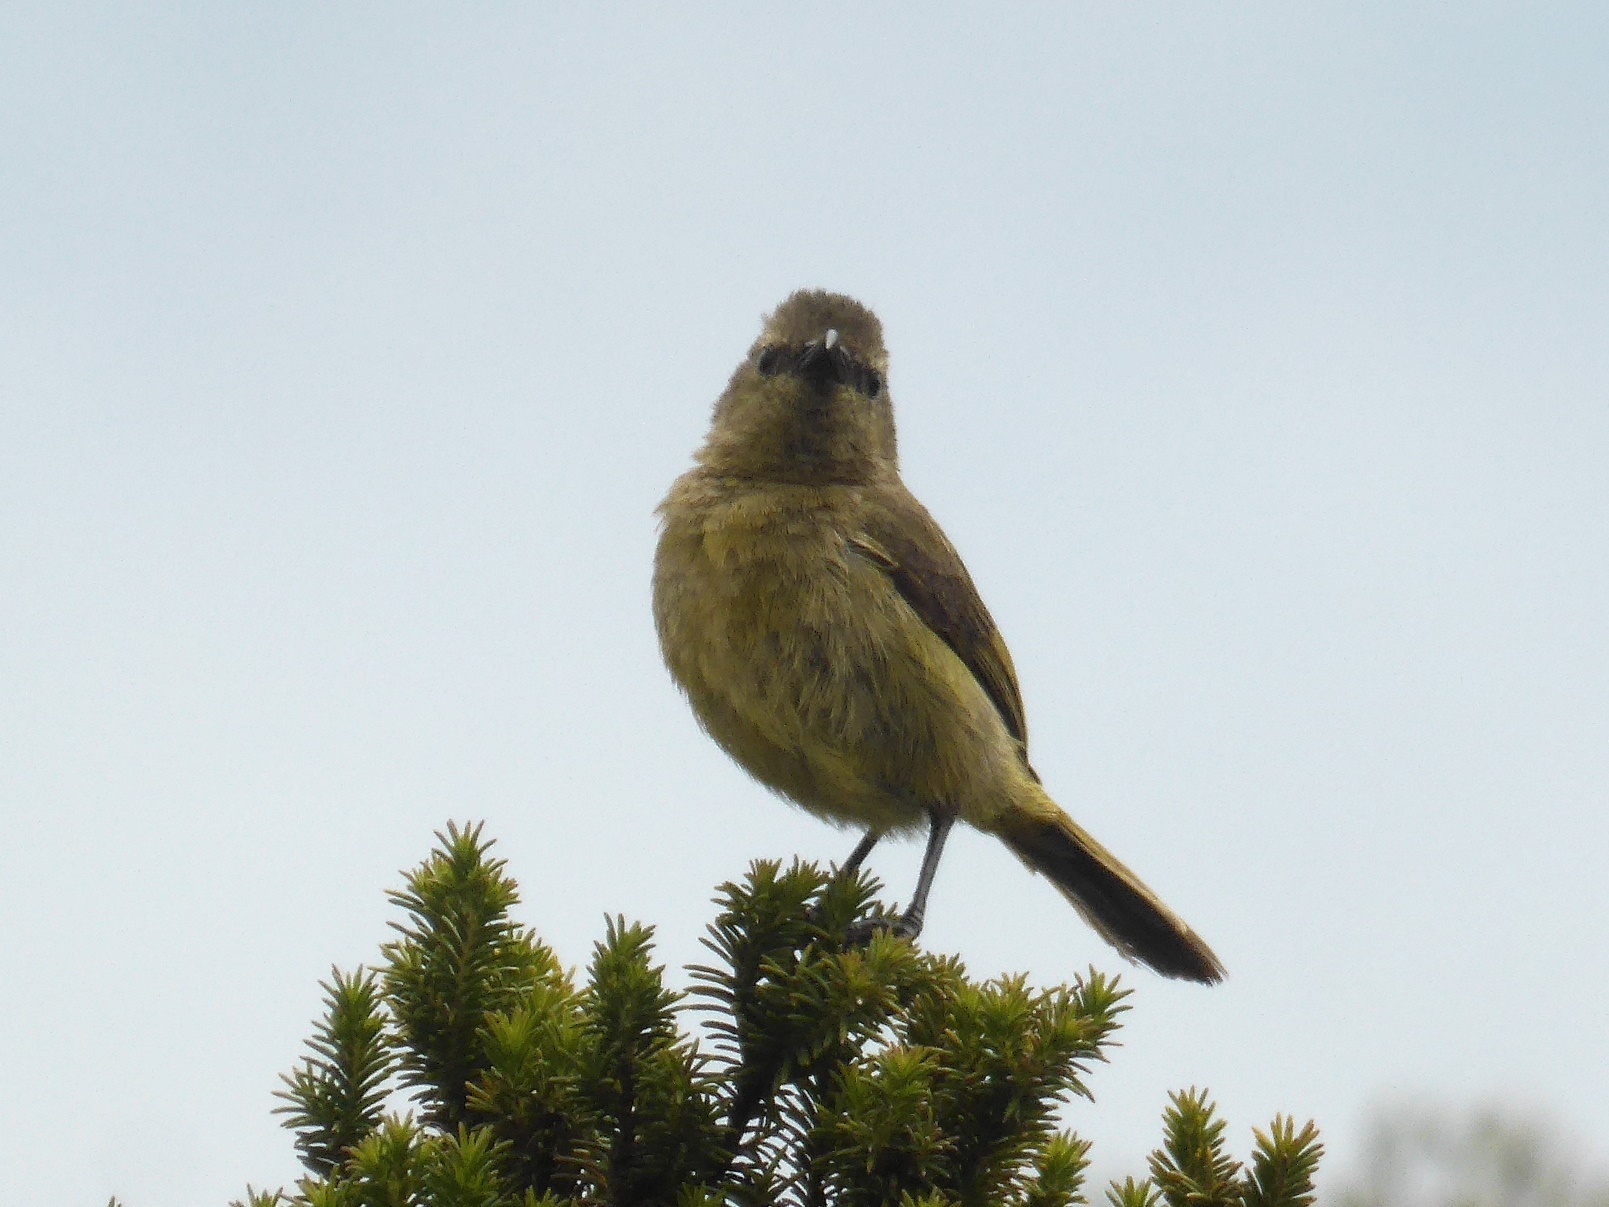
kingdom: Animalia
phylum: Chordata
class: Aves
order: Passeriformes
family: Nectariniidae
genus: Anthobaphes
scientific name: Anthobaphes violacea
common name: Orange-breasted sunbird
